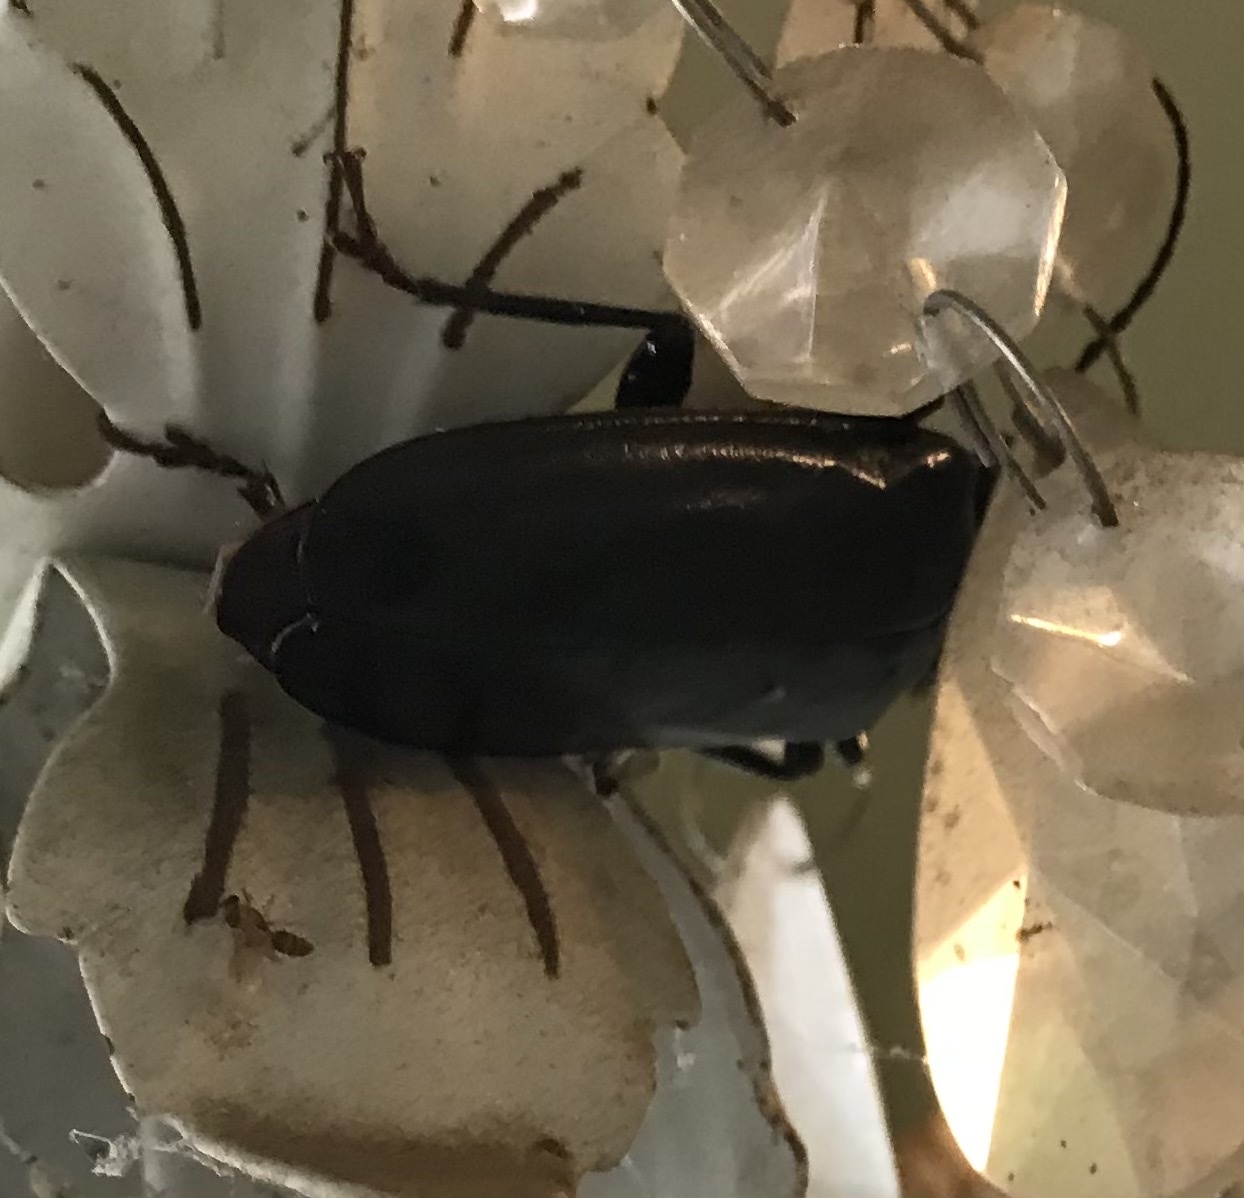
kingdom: Animalia
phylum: Arthropoda
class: Insecta
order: Coleoptera
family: Cerambycidae
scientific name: Cerambycidae
